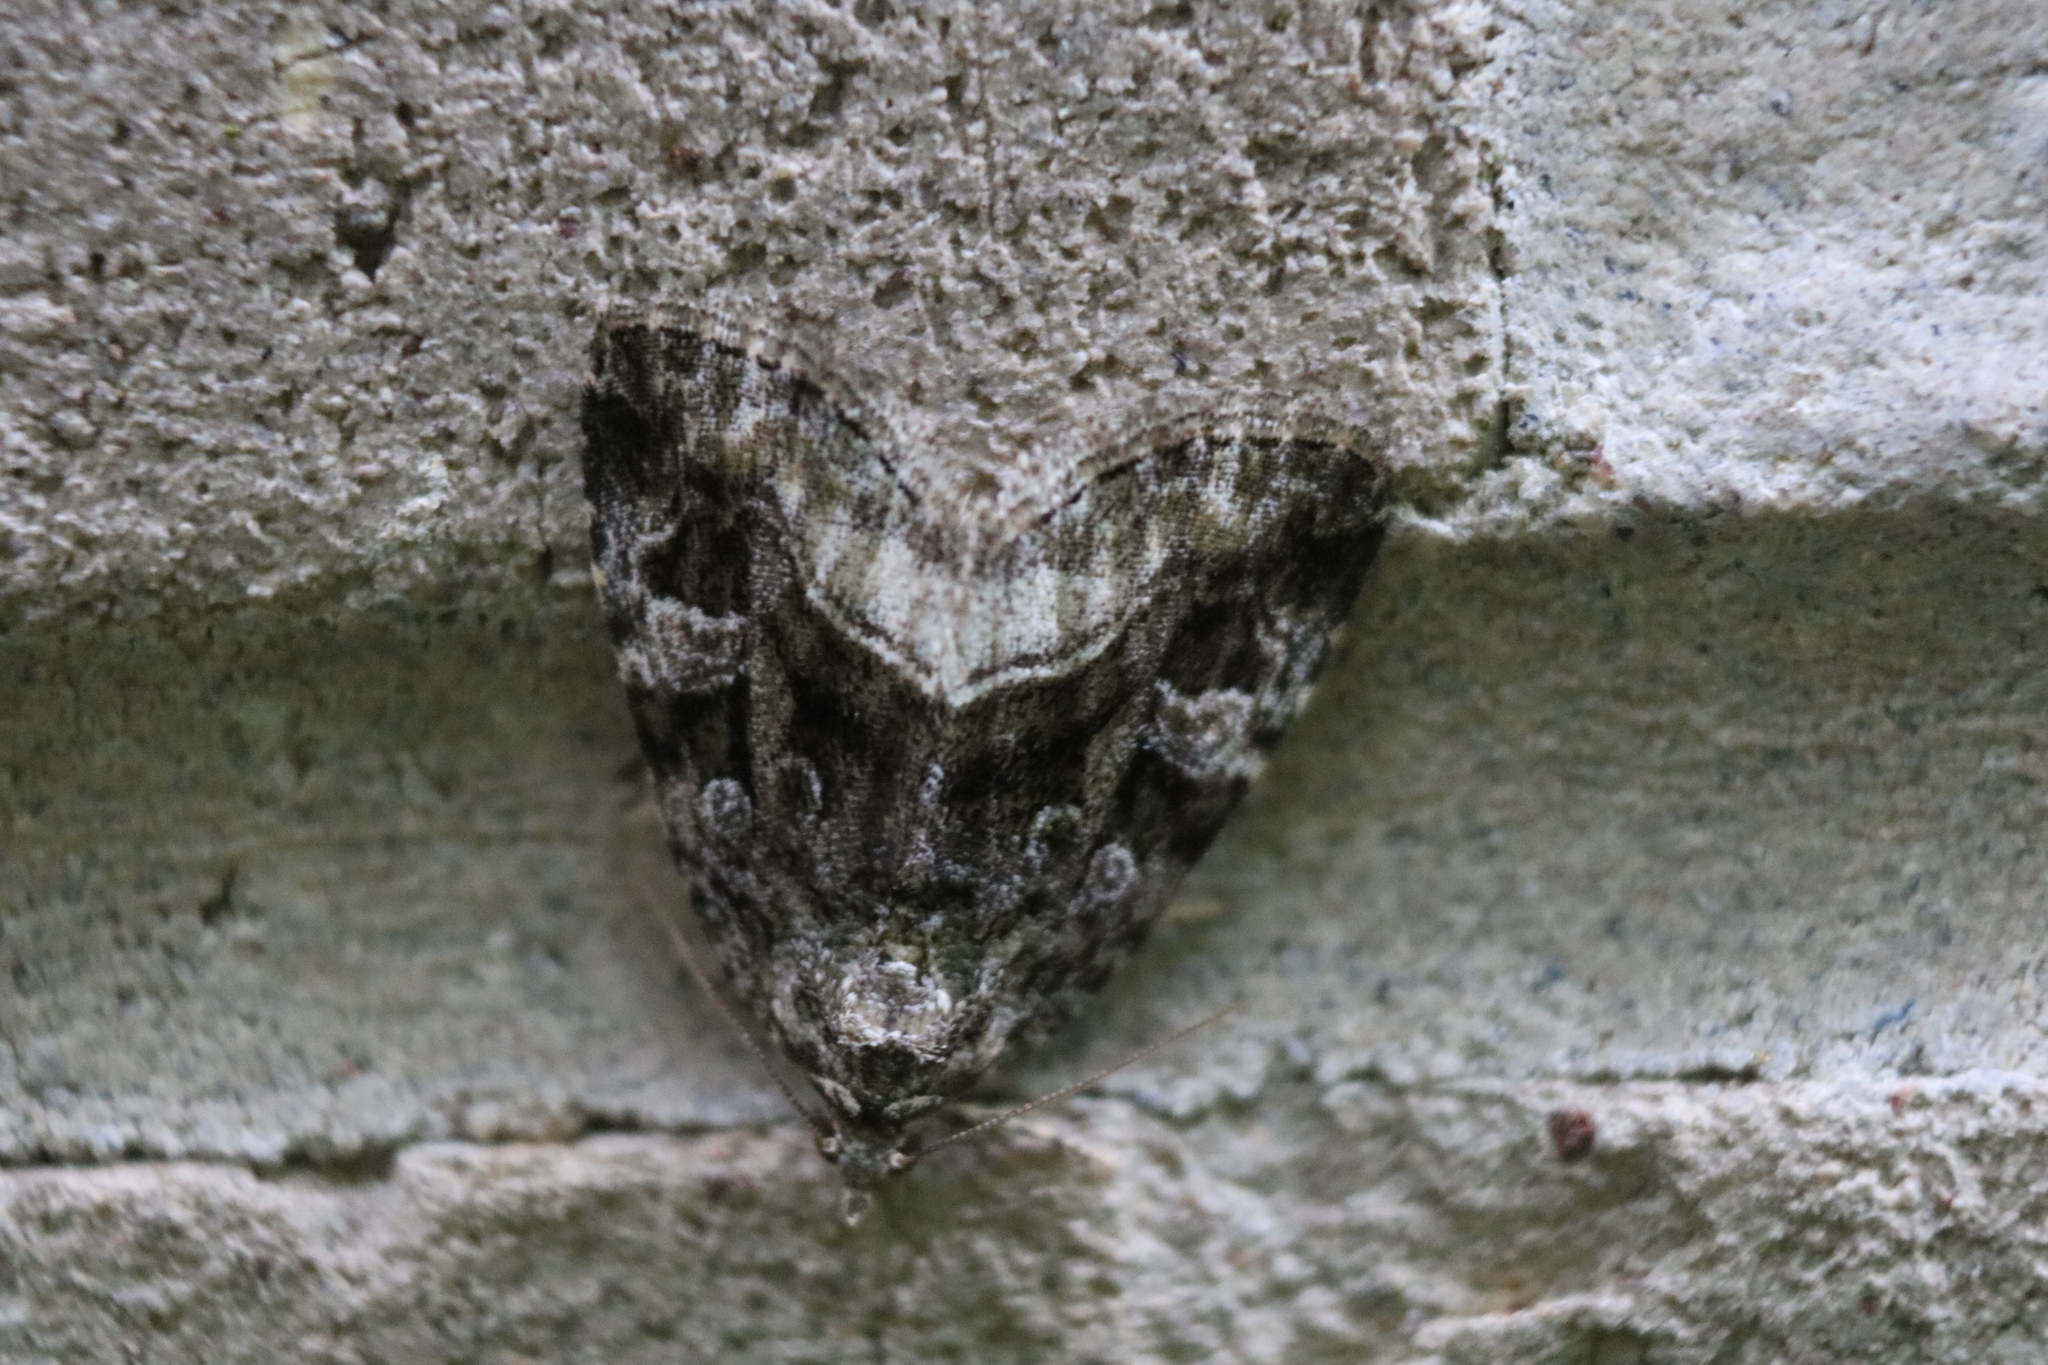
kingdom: Animalia
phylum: Arthropoda
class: Insecta
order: Lepidoptera
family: Noctuidae
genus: Protodeltote
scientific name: Protodeltote muscosula
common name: Large mossy glyph
